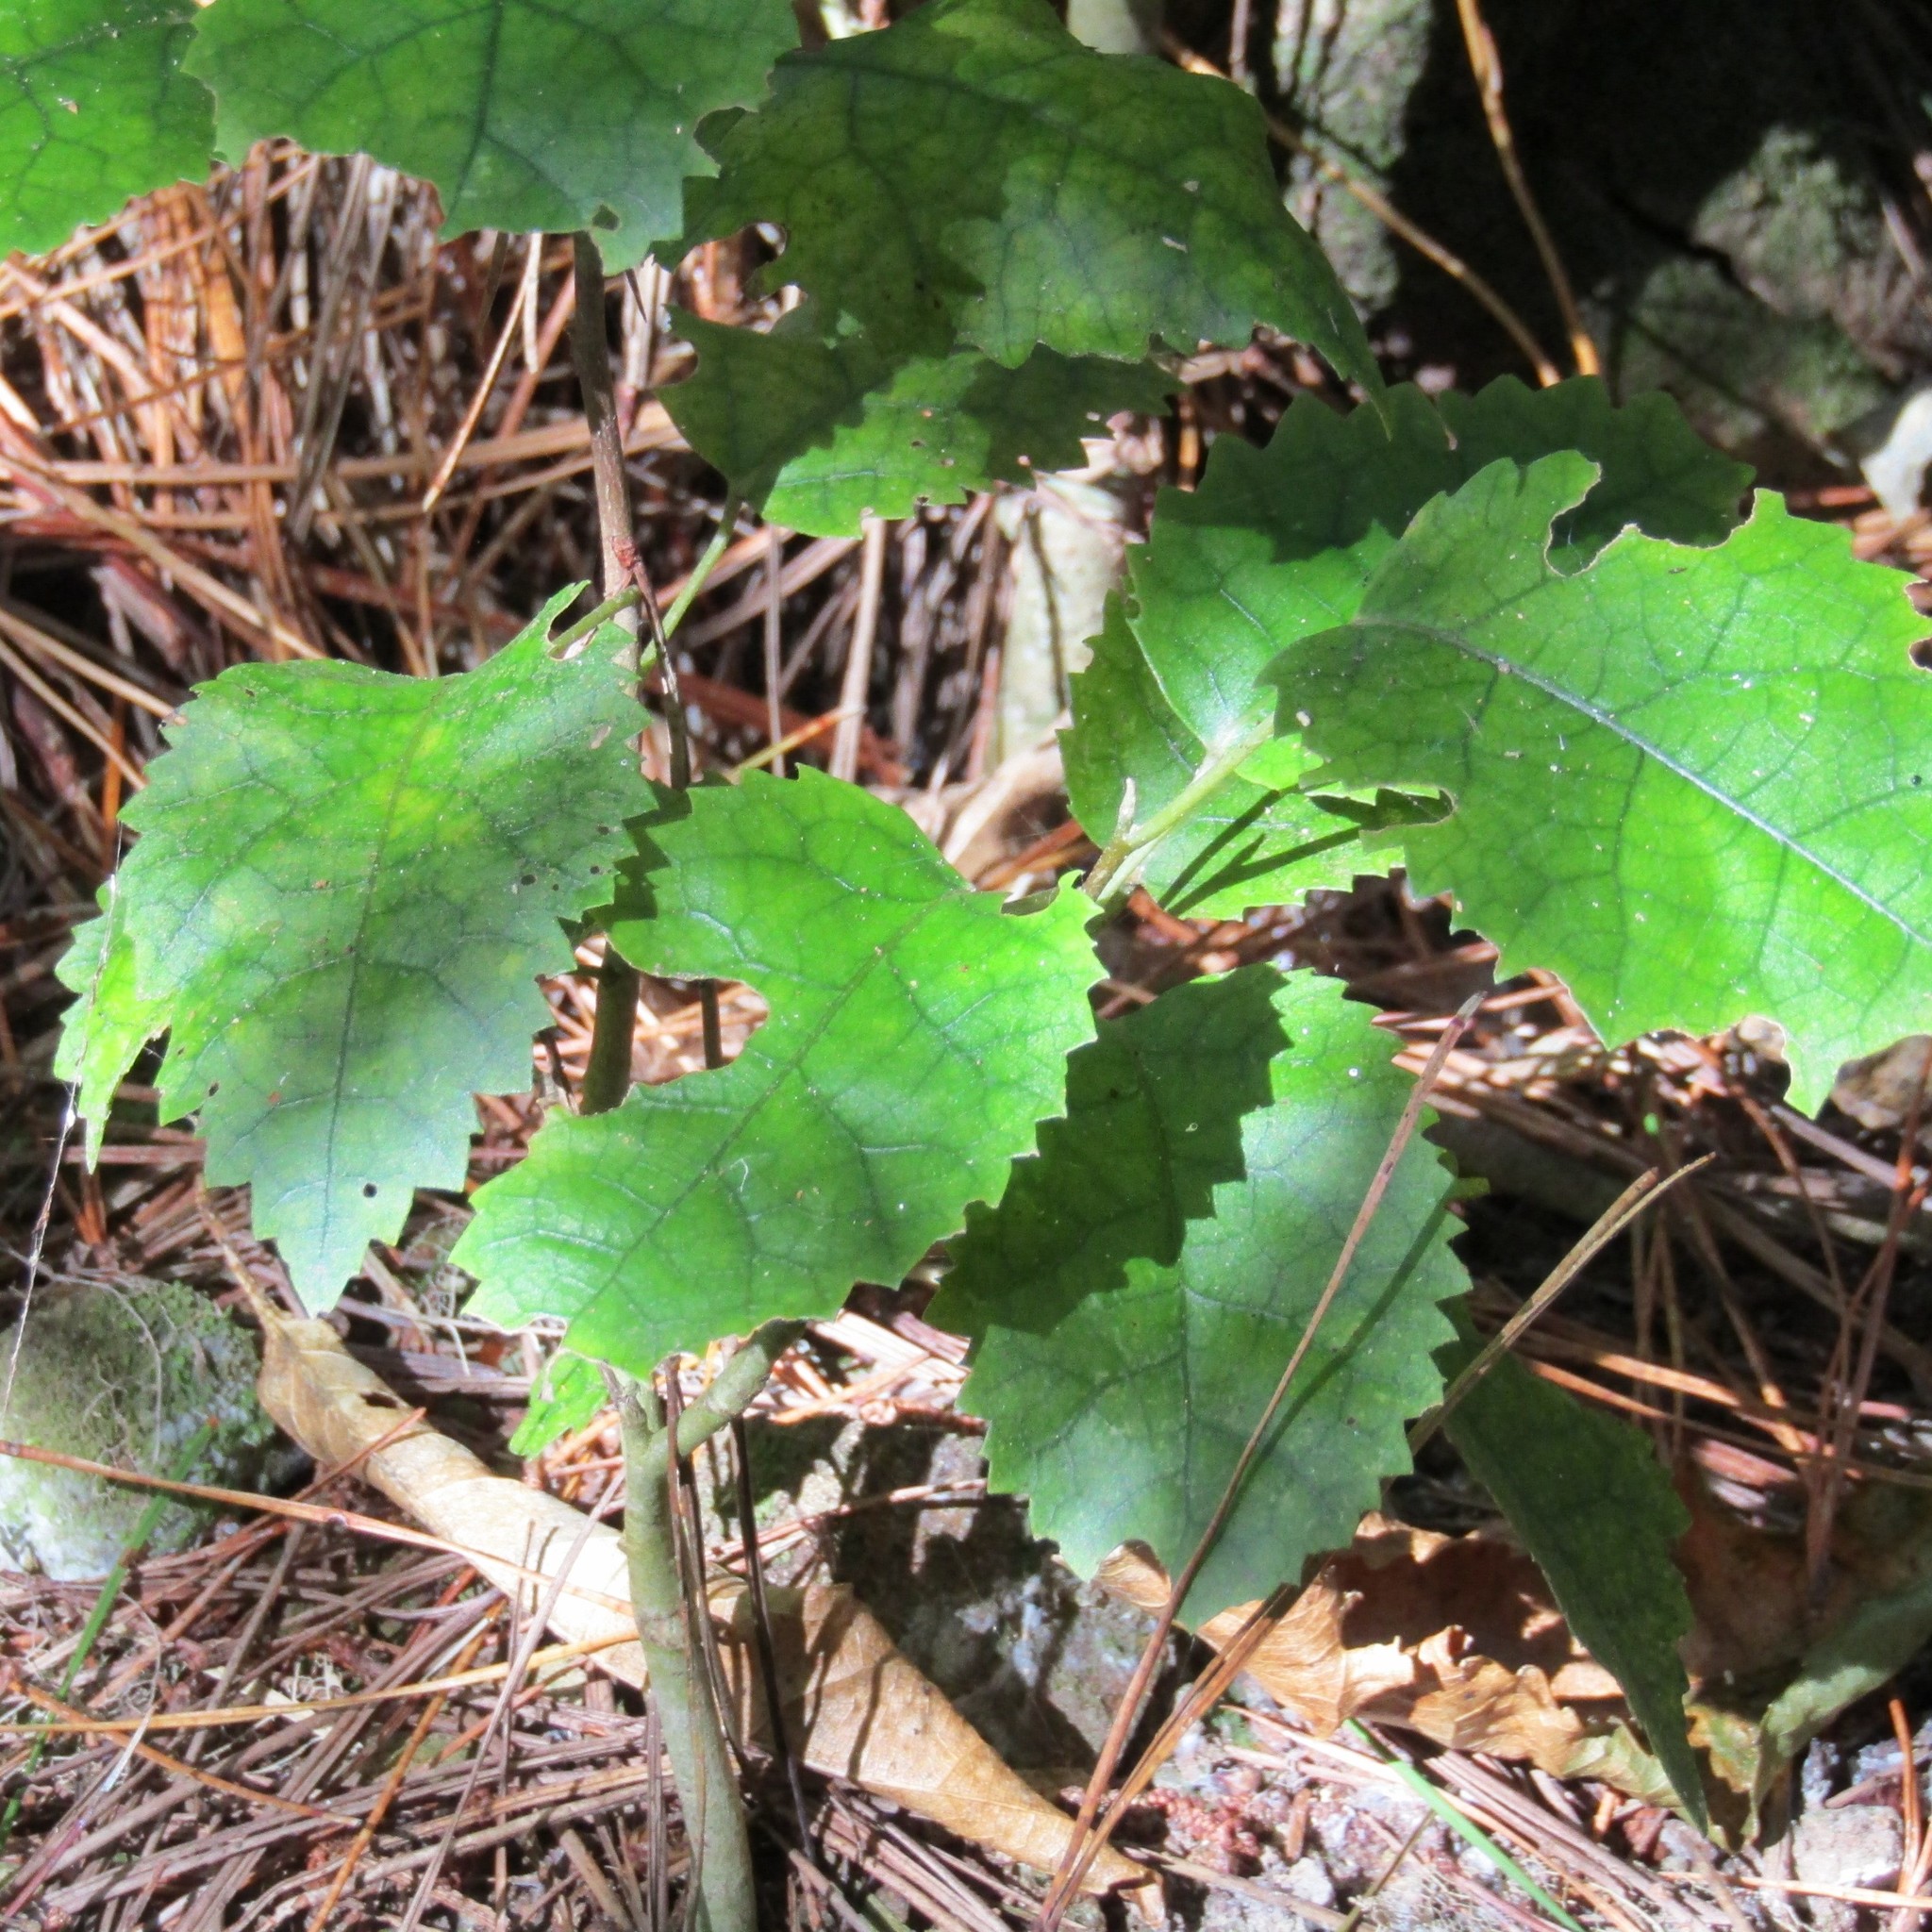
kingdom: Plantae
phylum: Tracheophyta
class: Magnoliopsida
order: Malvales
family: Malvaceae
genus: Hoheria
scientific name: Hoheria populnea
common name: Lacebark
